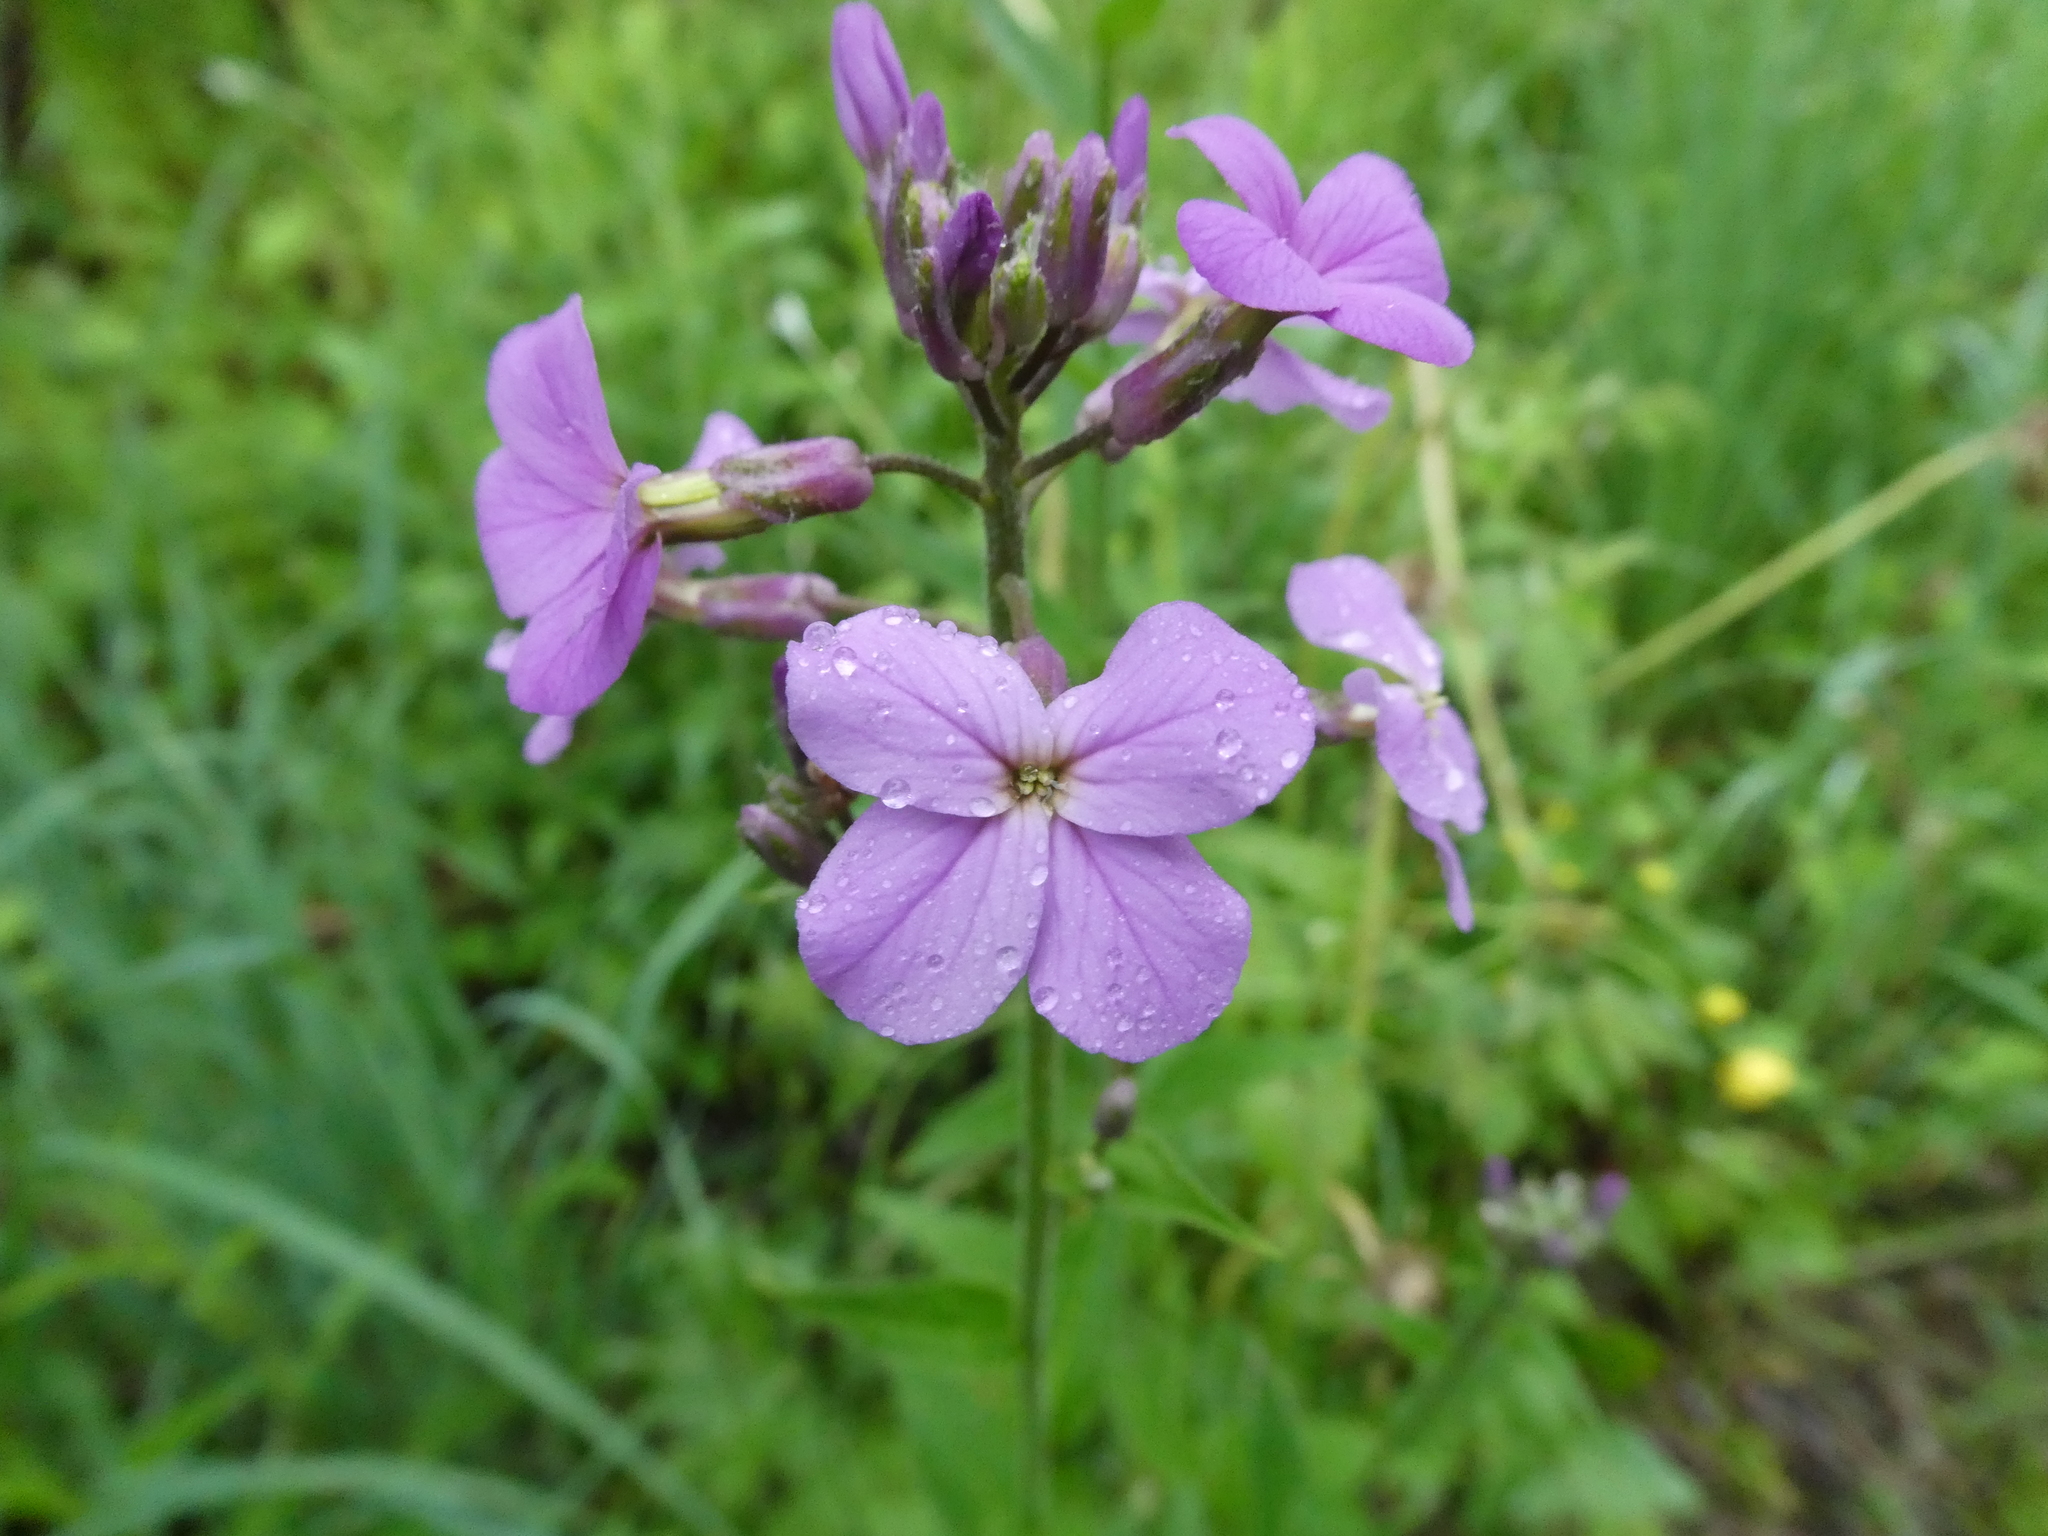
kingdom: Plantae
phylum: Tracheophyta
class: Magnoliopsida
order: Brassicales
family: Brassicaceae
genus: Hesperis
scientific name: Hesperis matronalis
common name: Dame's-violet
